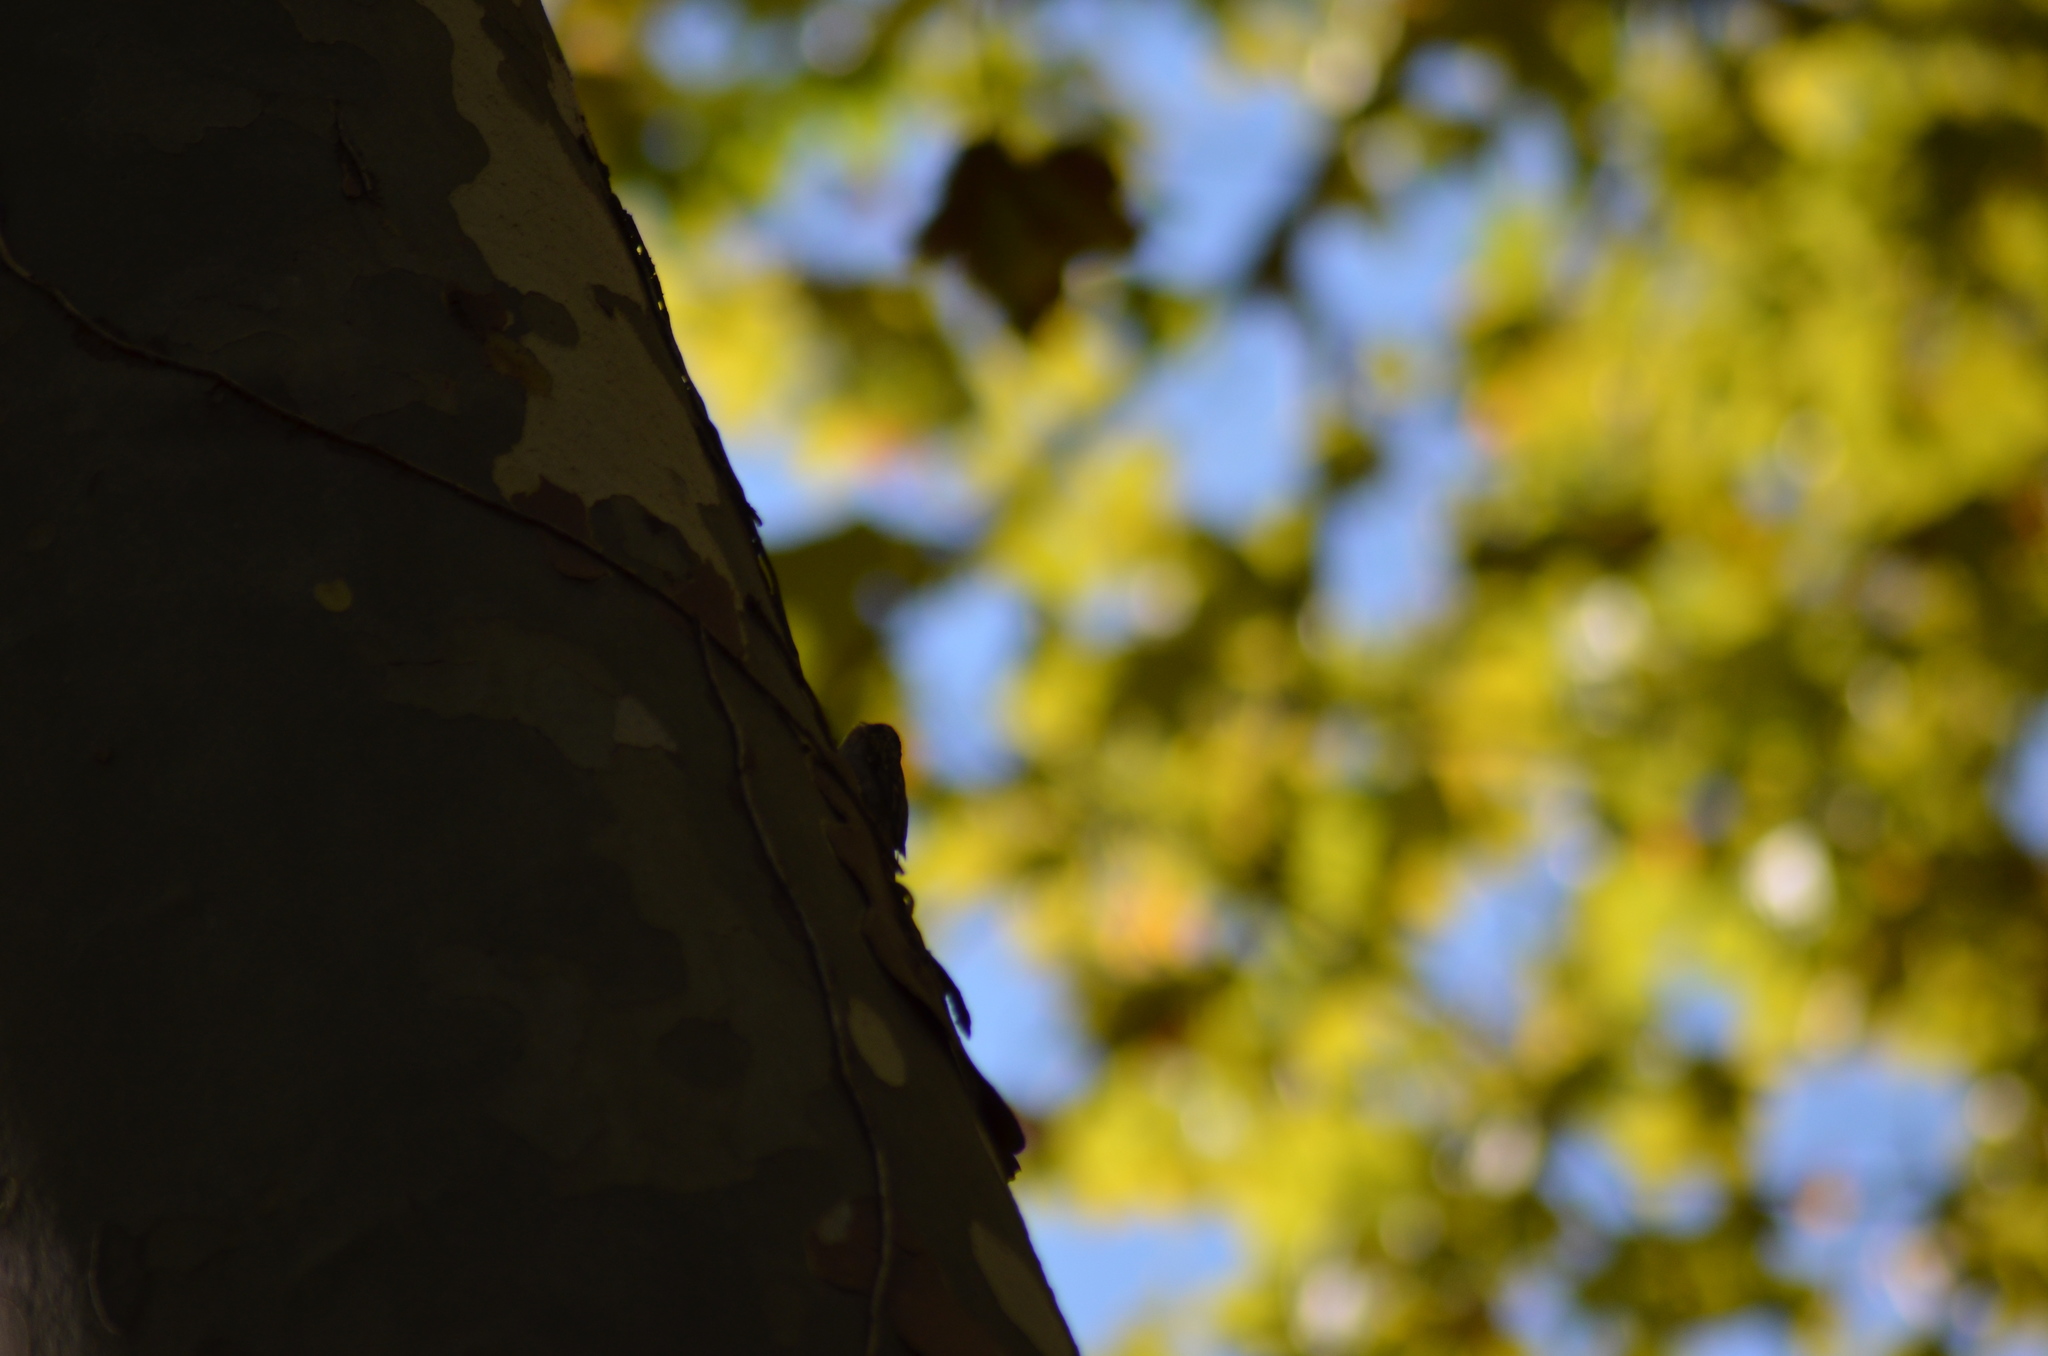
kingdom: Animalia
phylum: Chordata
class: Aves
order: Passeriformes
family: Certhiidae
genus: Certhia
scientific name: Certhia brachydactyla
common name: Short-toed treecreeper
